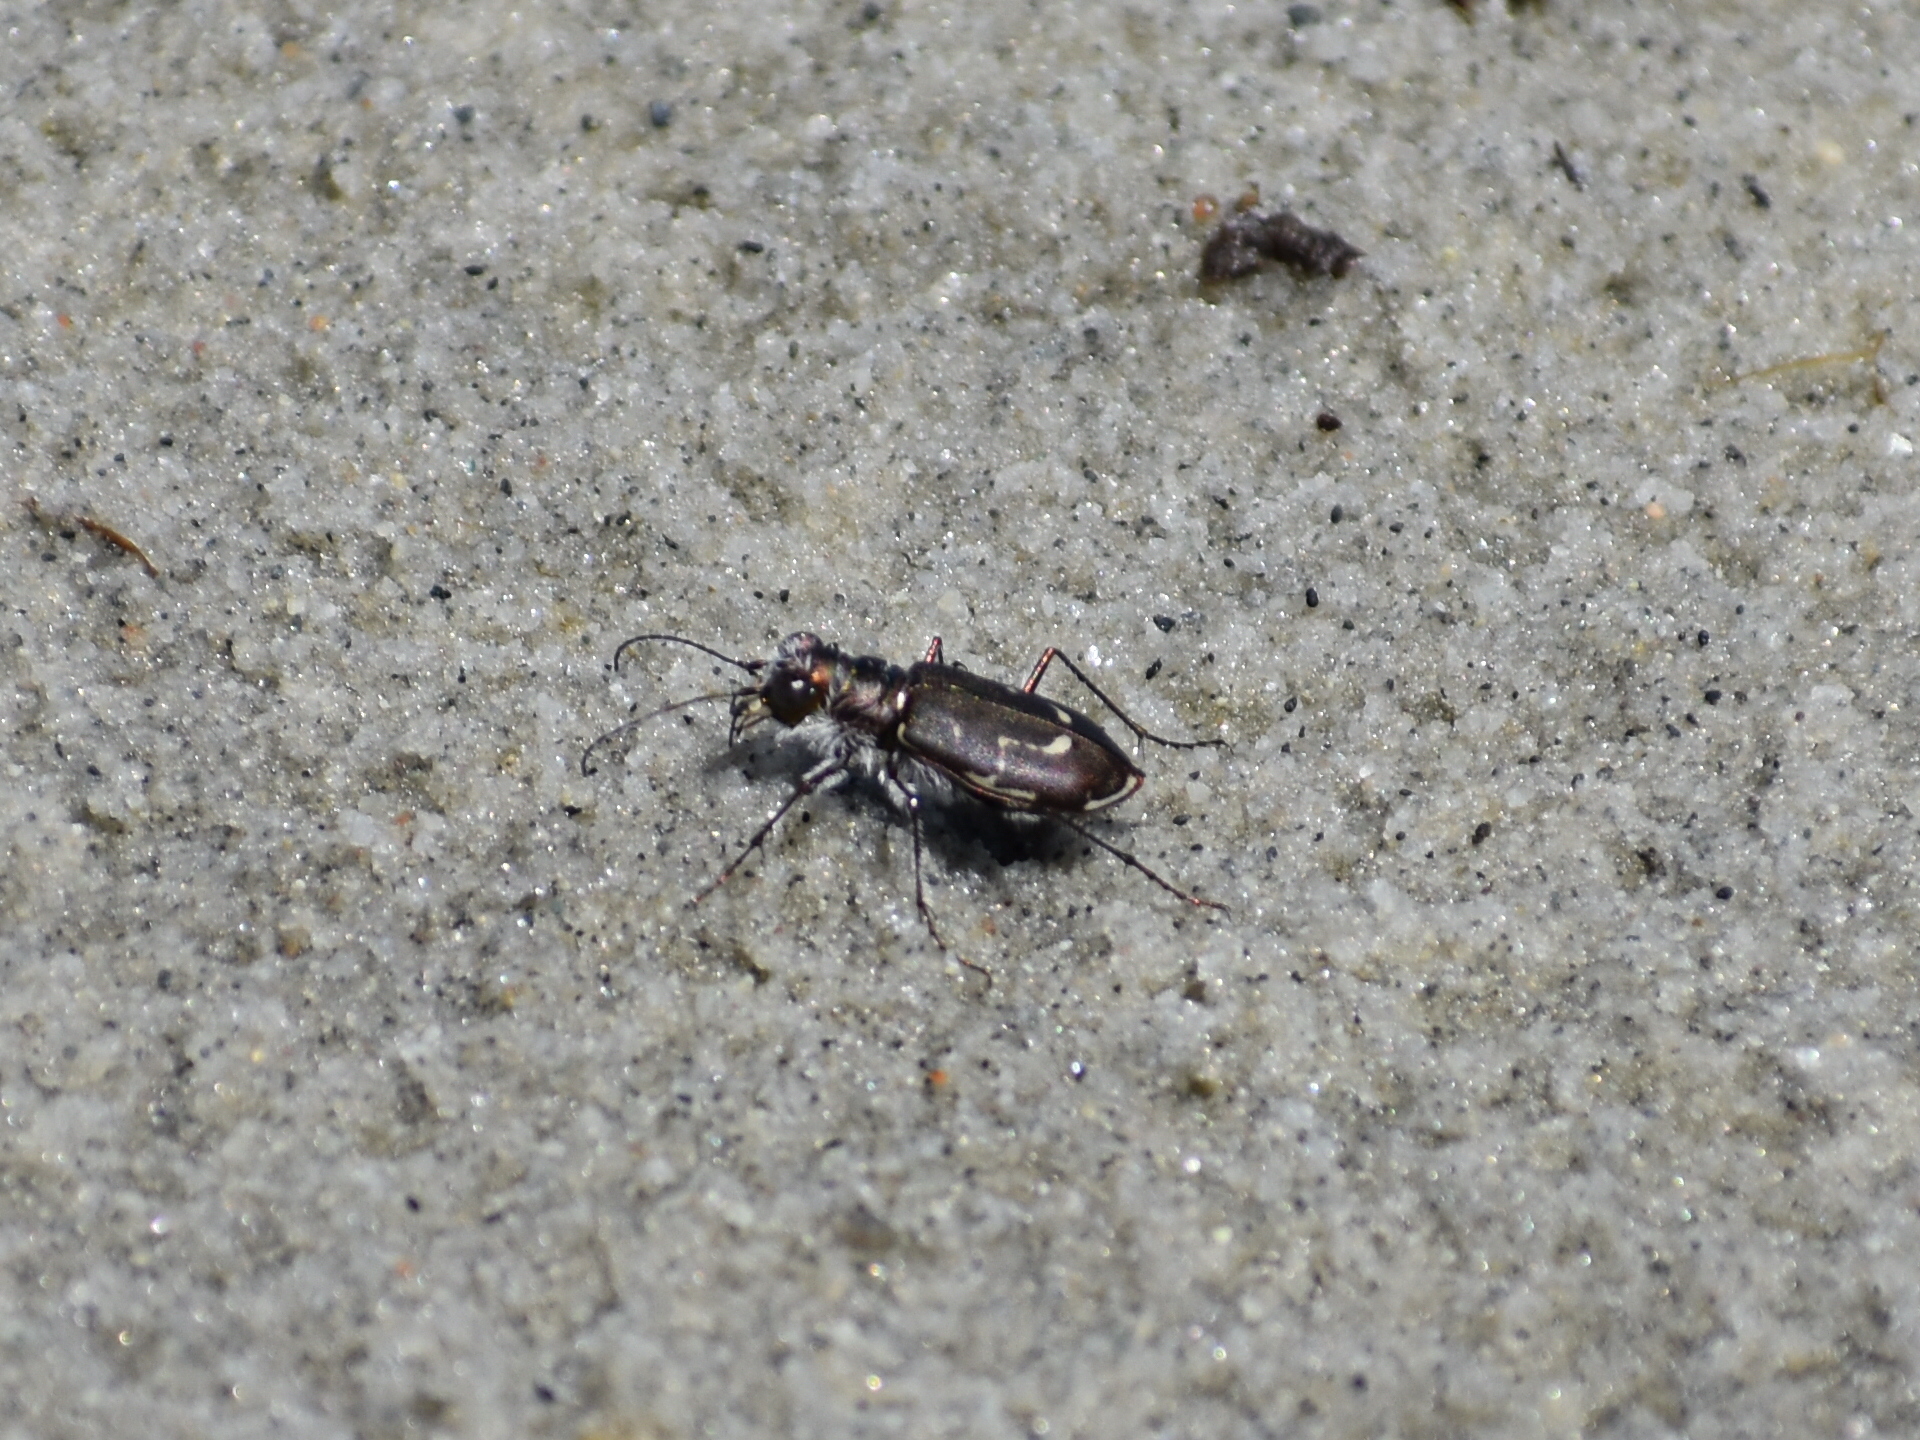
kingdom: Animalia
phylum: Arthropoda
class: Insecta
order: Coleoptera
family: Carabidae
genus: Cicindela
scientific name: Cicindela hirticollis
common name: Hairy-necked tiger beetle
